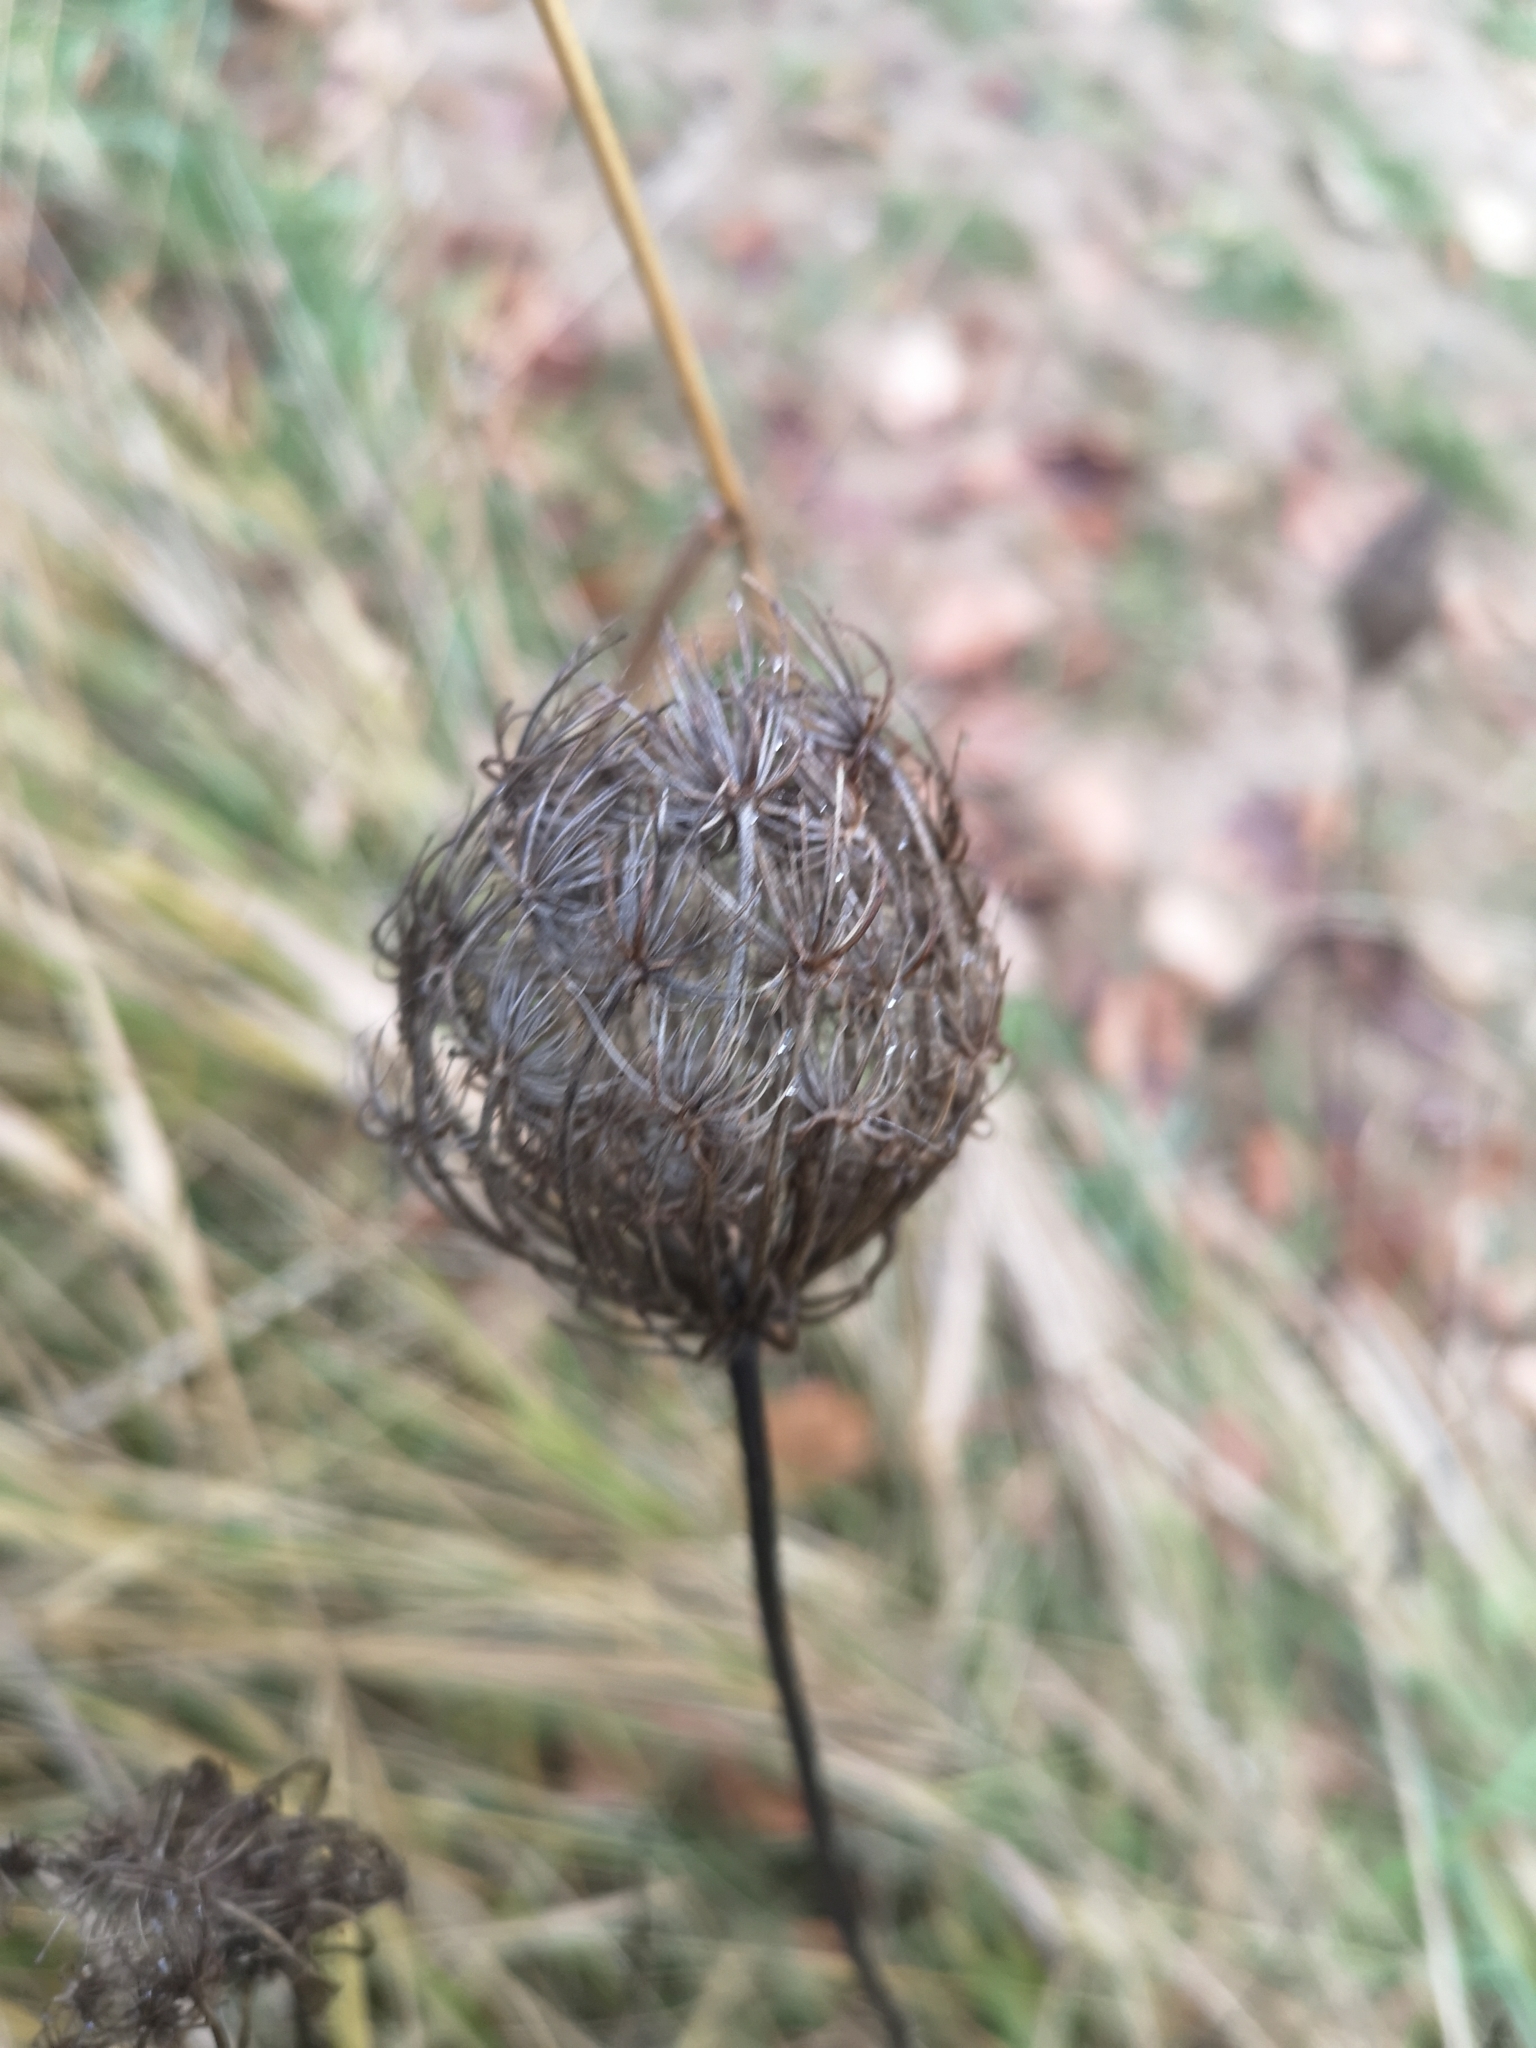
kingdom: Plantae
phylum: Tracheophyta
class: Magnoliopsida
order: Apiales
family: Apiaceae
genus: Daucus
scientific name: Daucus carota
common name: Wild carrot
